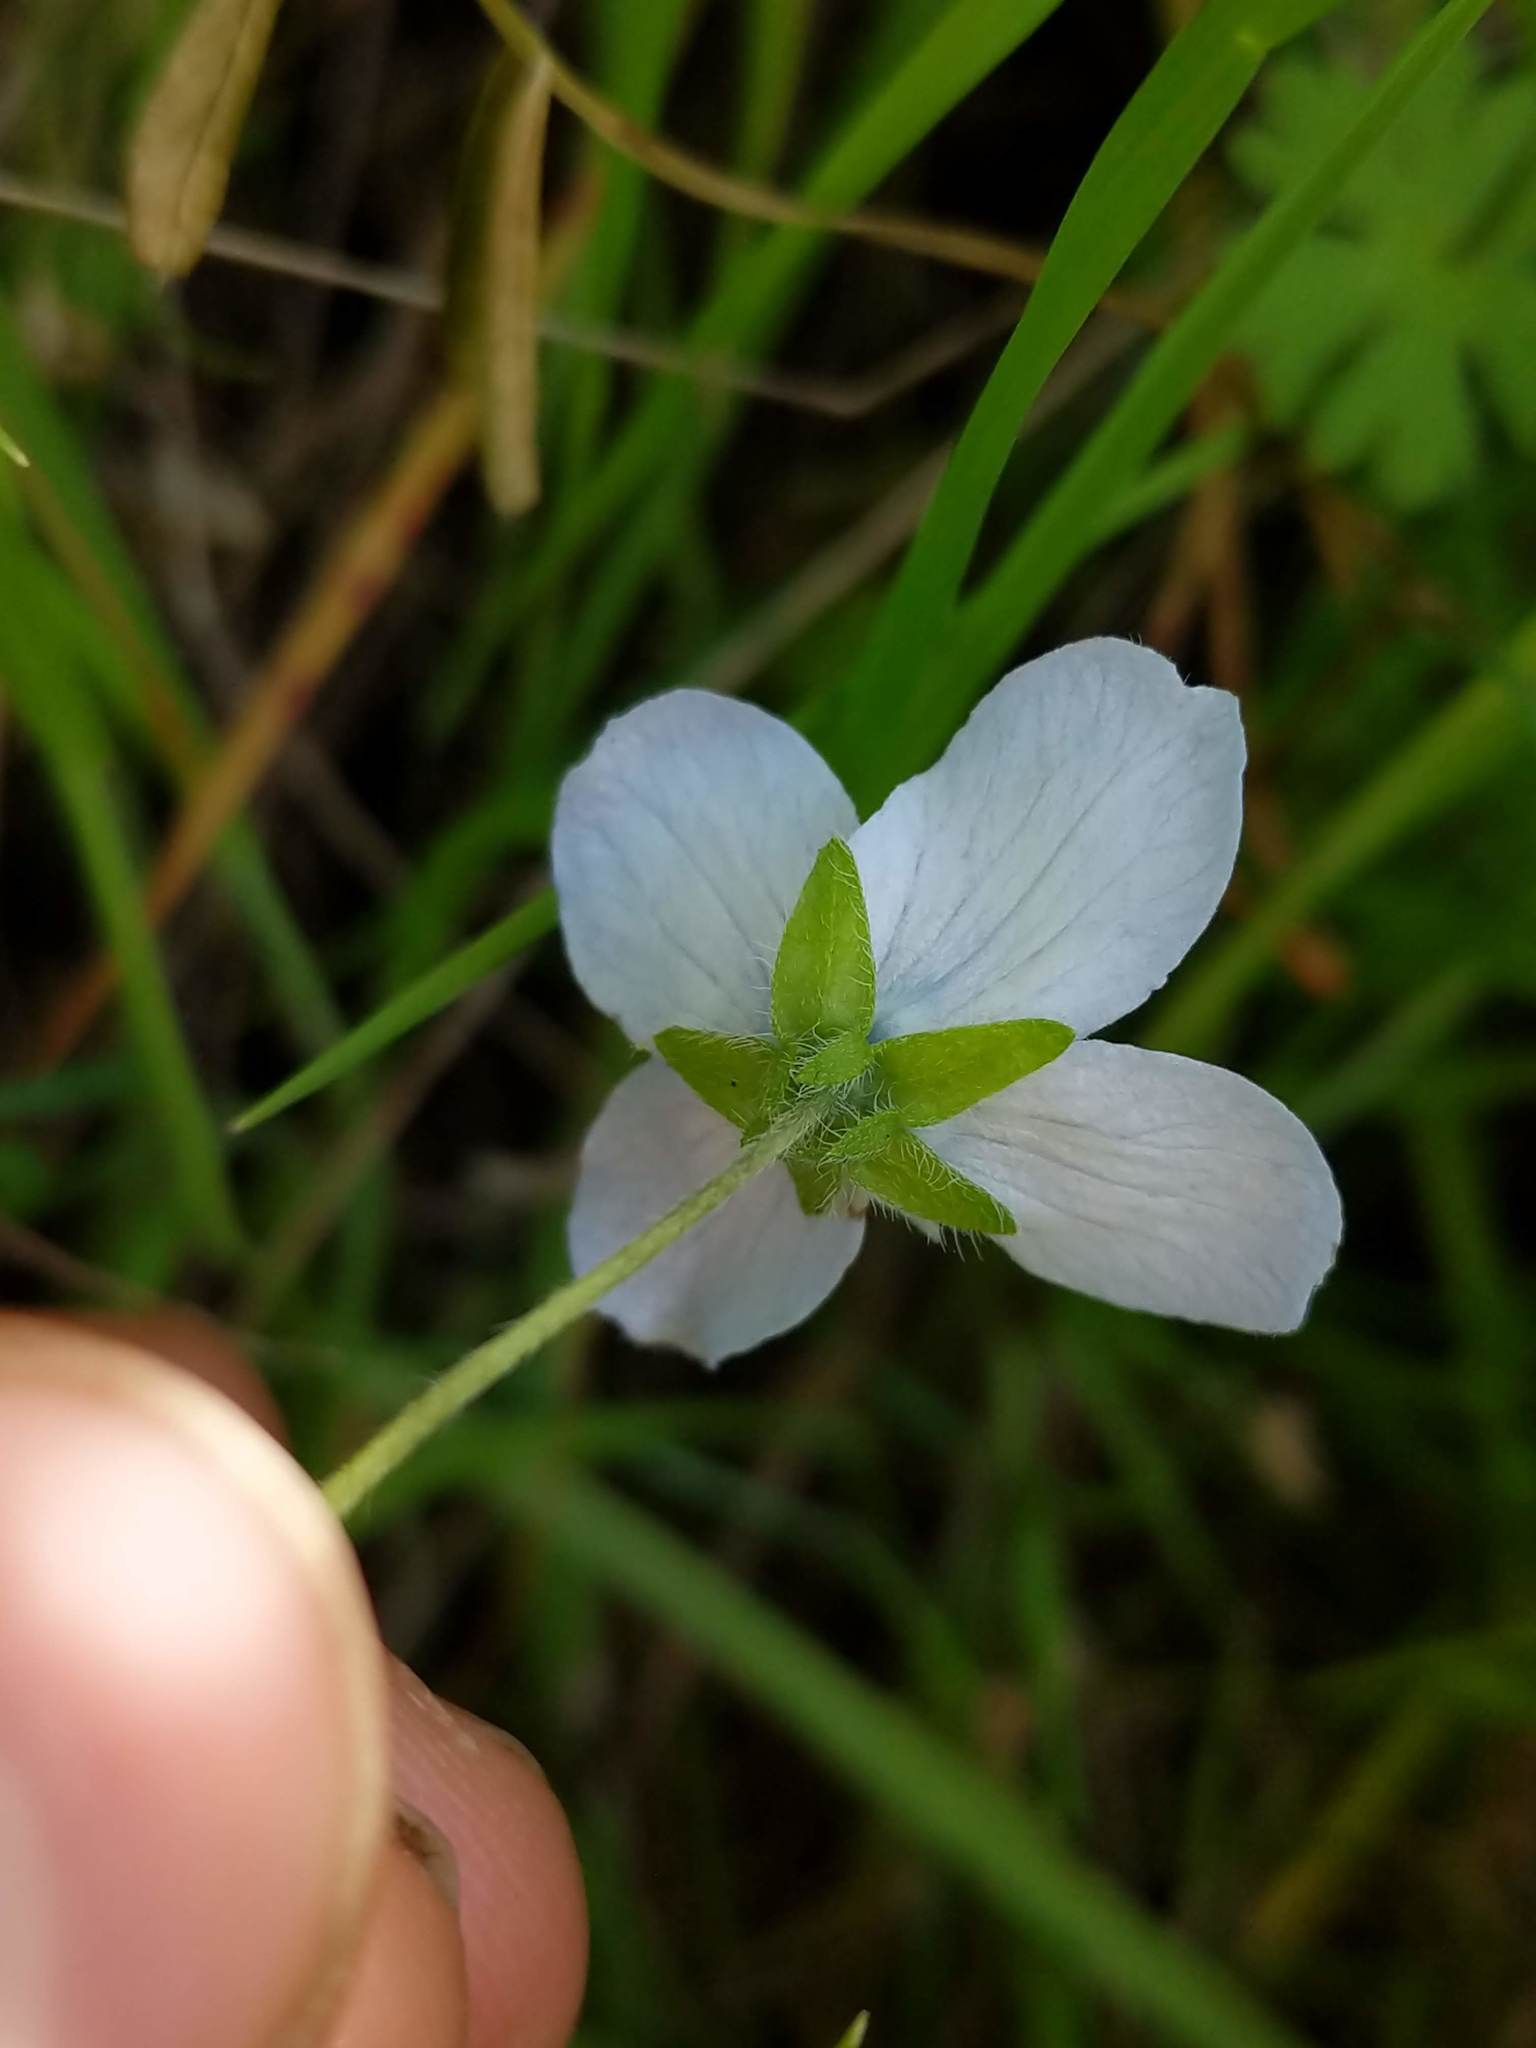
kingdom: Plantae
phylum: Tracheophyta
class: Magnoliopsida
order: Boraginales
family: Hydrophyllaceae
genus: Nemophila
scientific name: Nemophila menziesii
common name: Baby's-blue-eyes
